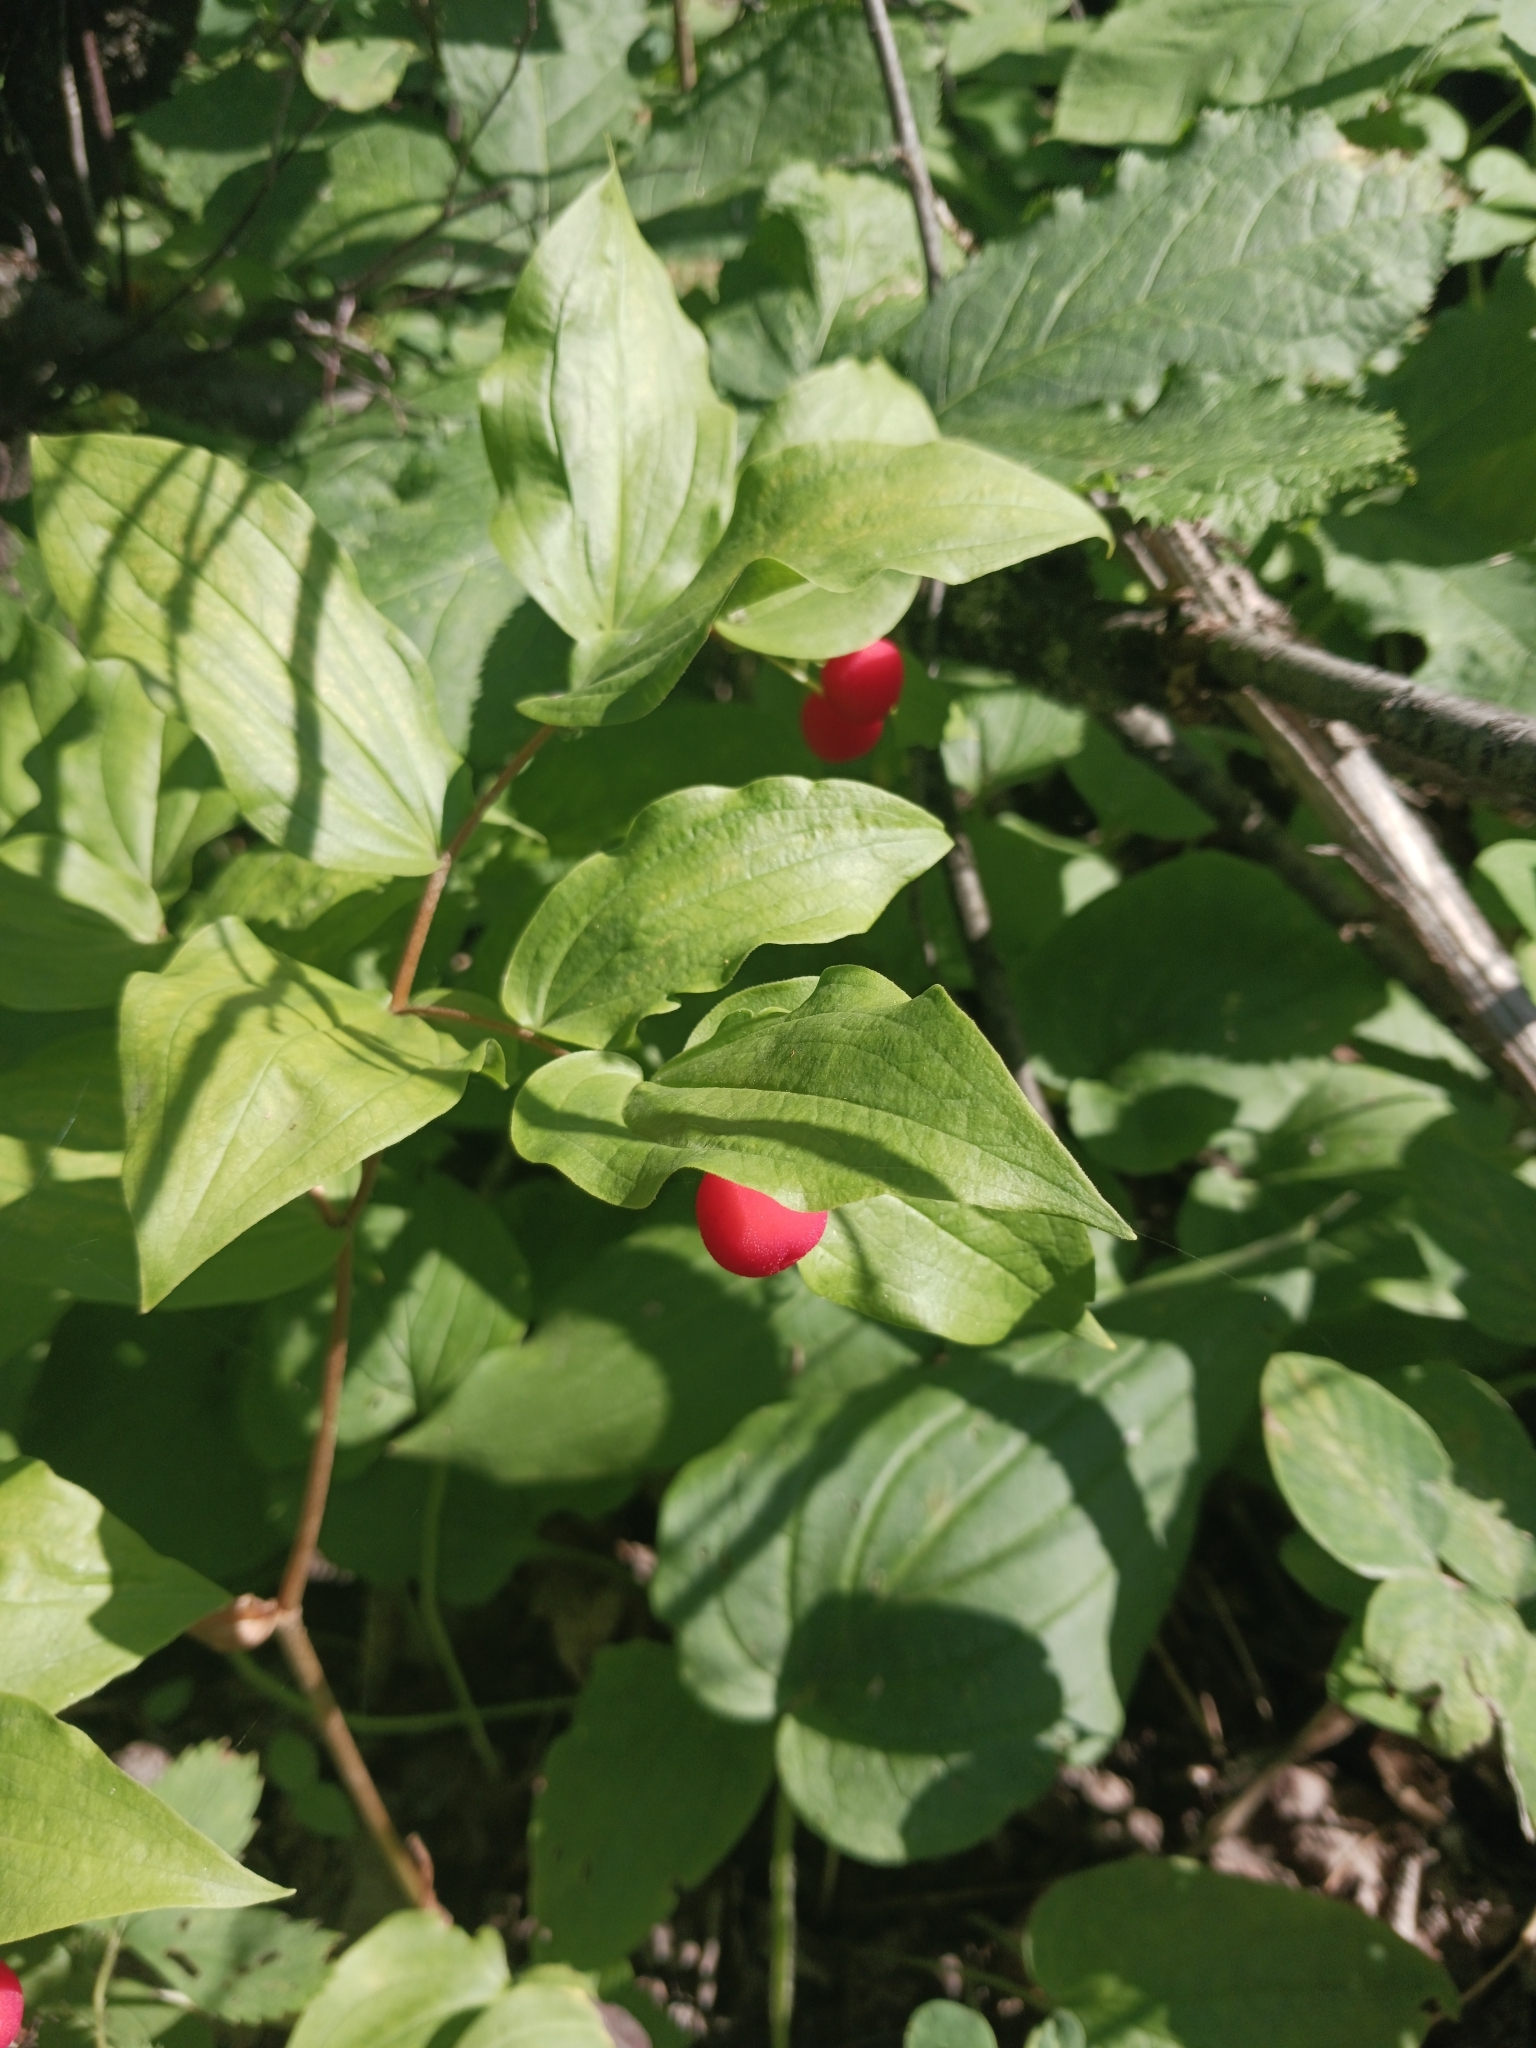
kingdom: Plantae
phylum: Tracheophyta
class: Liliopsida
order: Liliales
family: Liliaceae
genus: Prosartes
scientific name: Prosartes trachycarpa
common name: Rough-fruit fairy-bells
